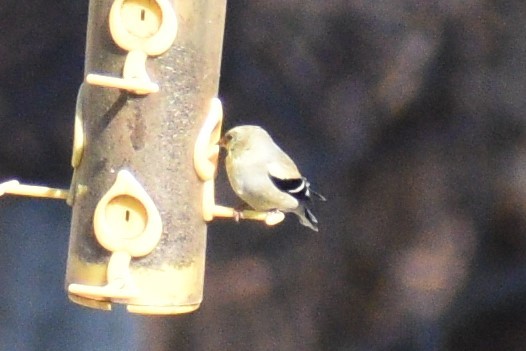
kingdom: Animalia
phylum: Chordata
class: Aves
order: Passeriformes
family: Fringillidae
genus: Spinus
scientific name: Spinus tristis
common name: American goldfinch
